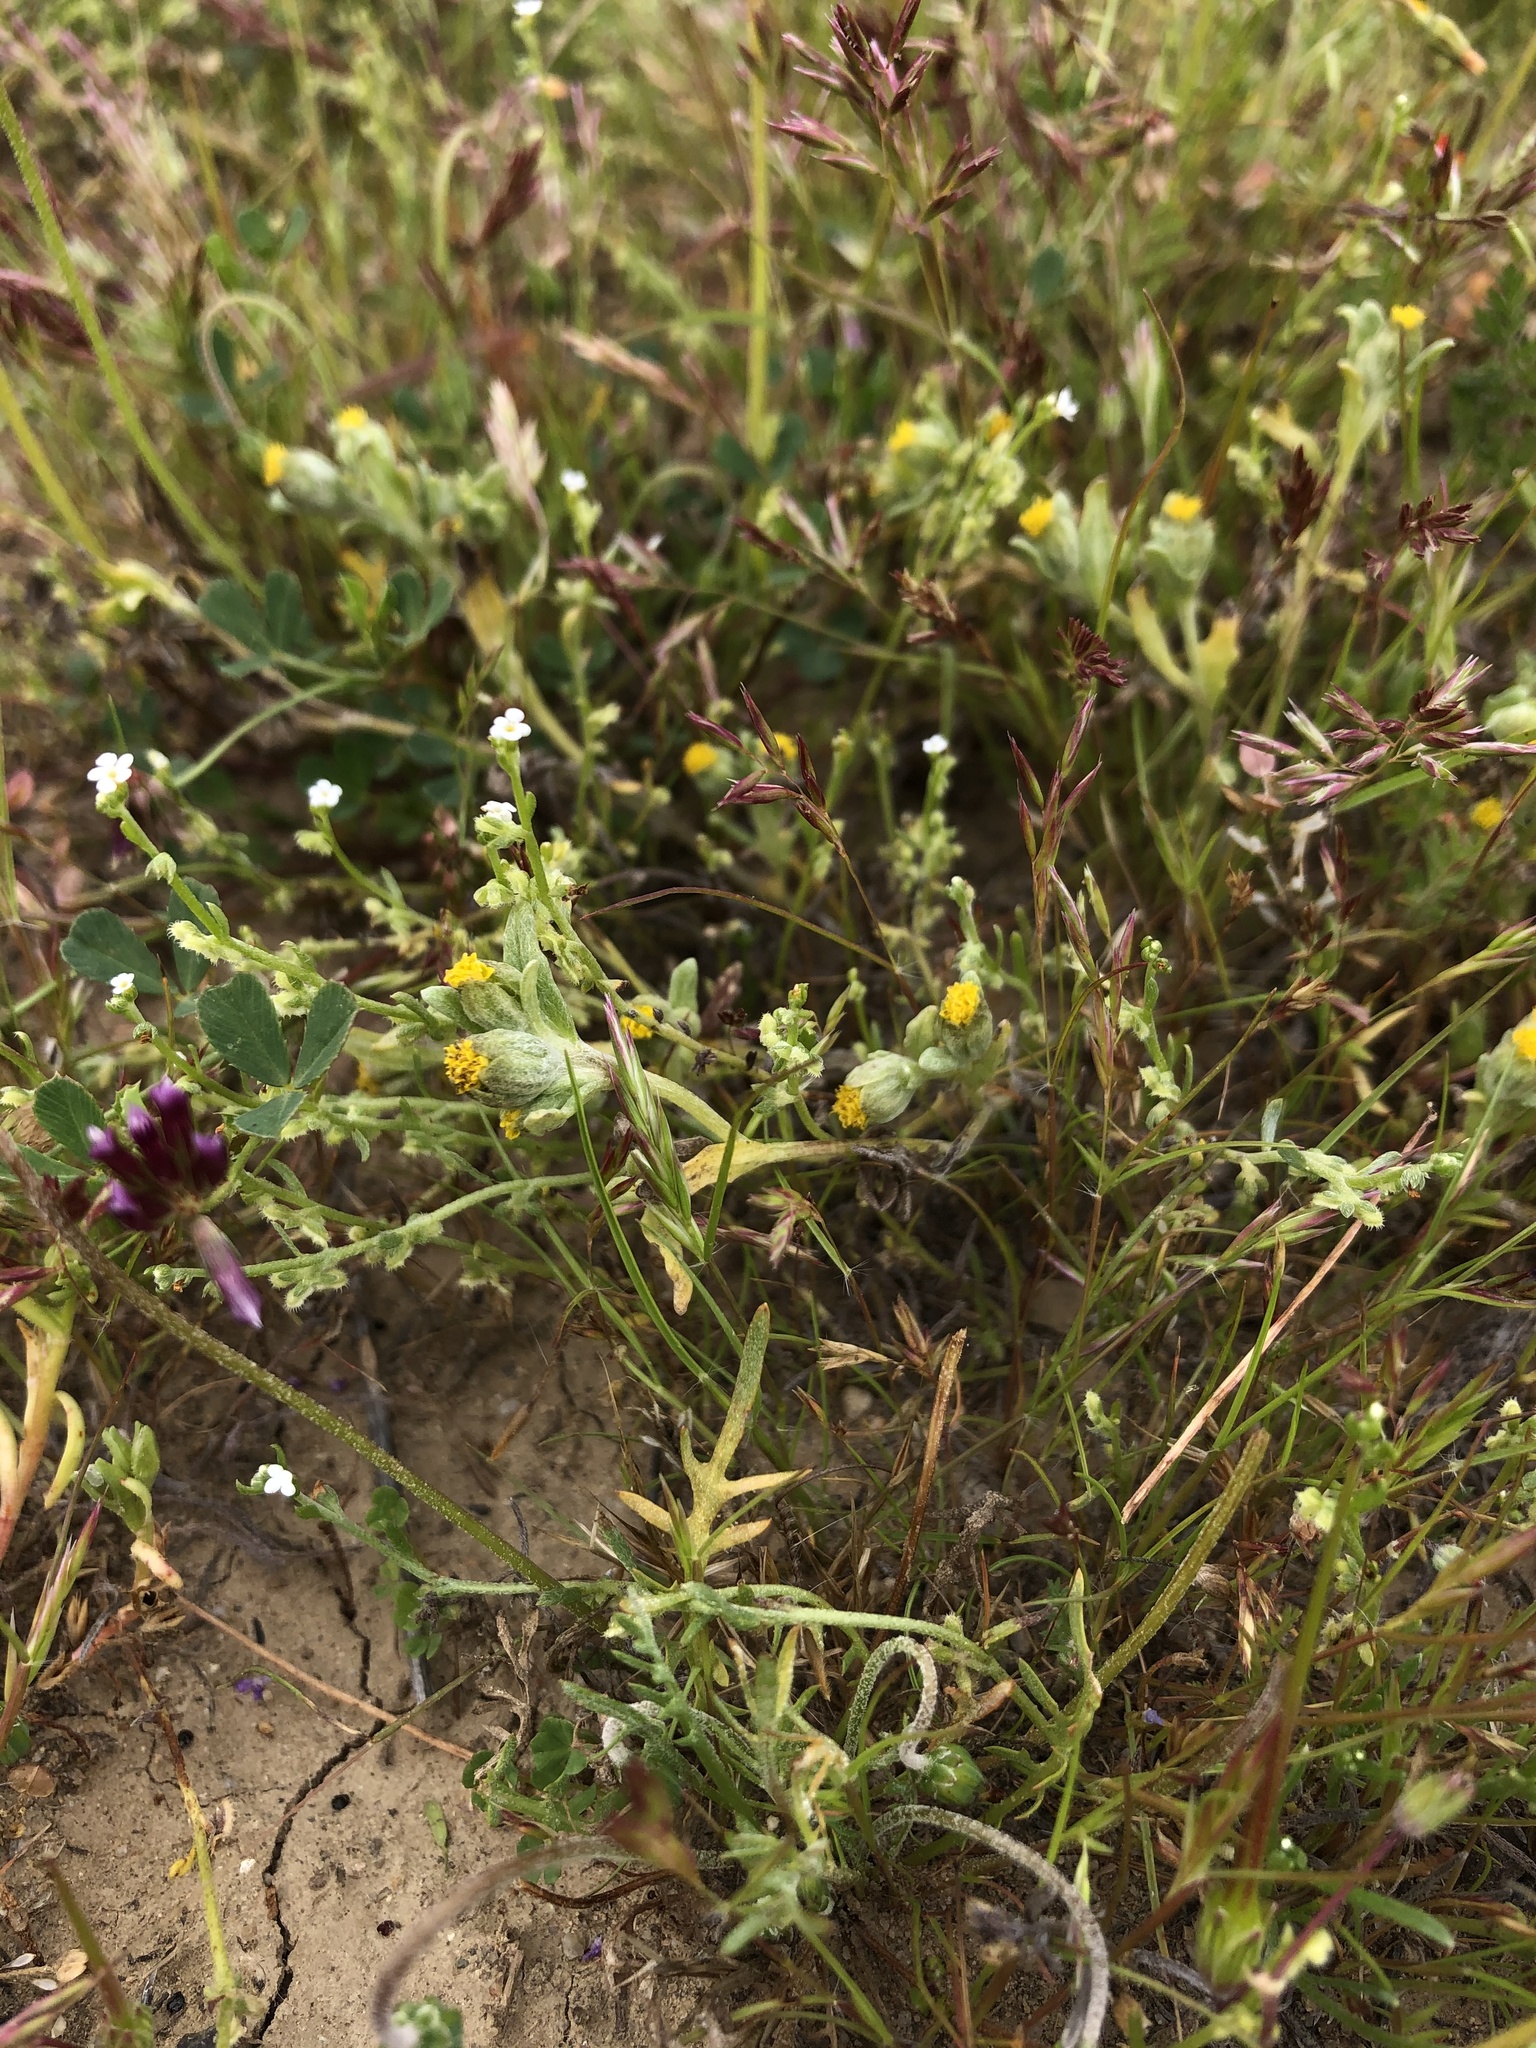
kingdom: Plantae
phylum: Tracheophyta
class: Magnoliopsida
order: Asterales
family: Asteraceae
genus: Monolopia
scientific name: Monolopia congdonii
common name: San joaquin woolly-threads
